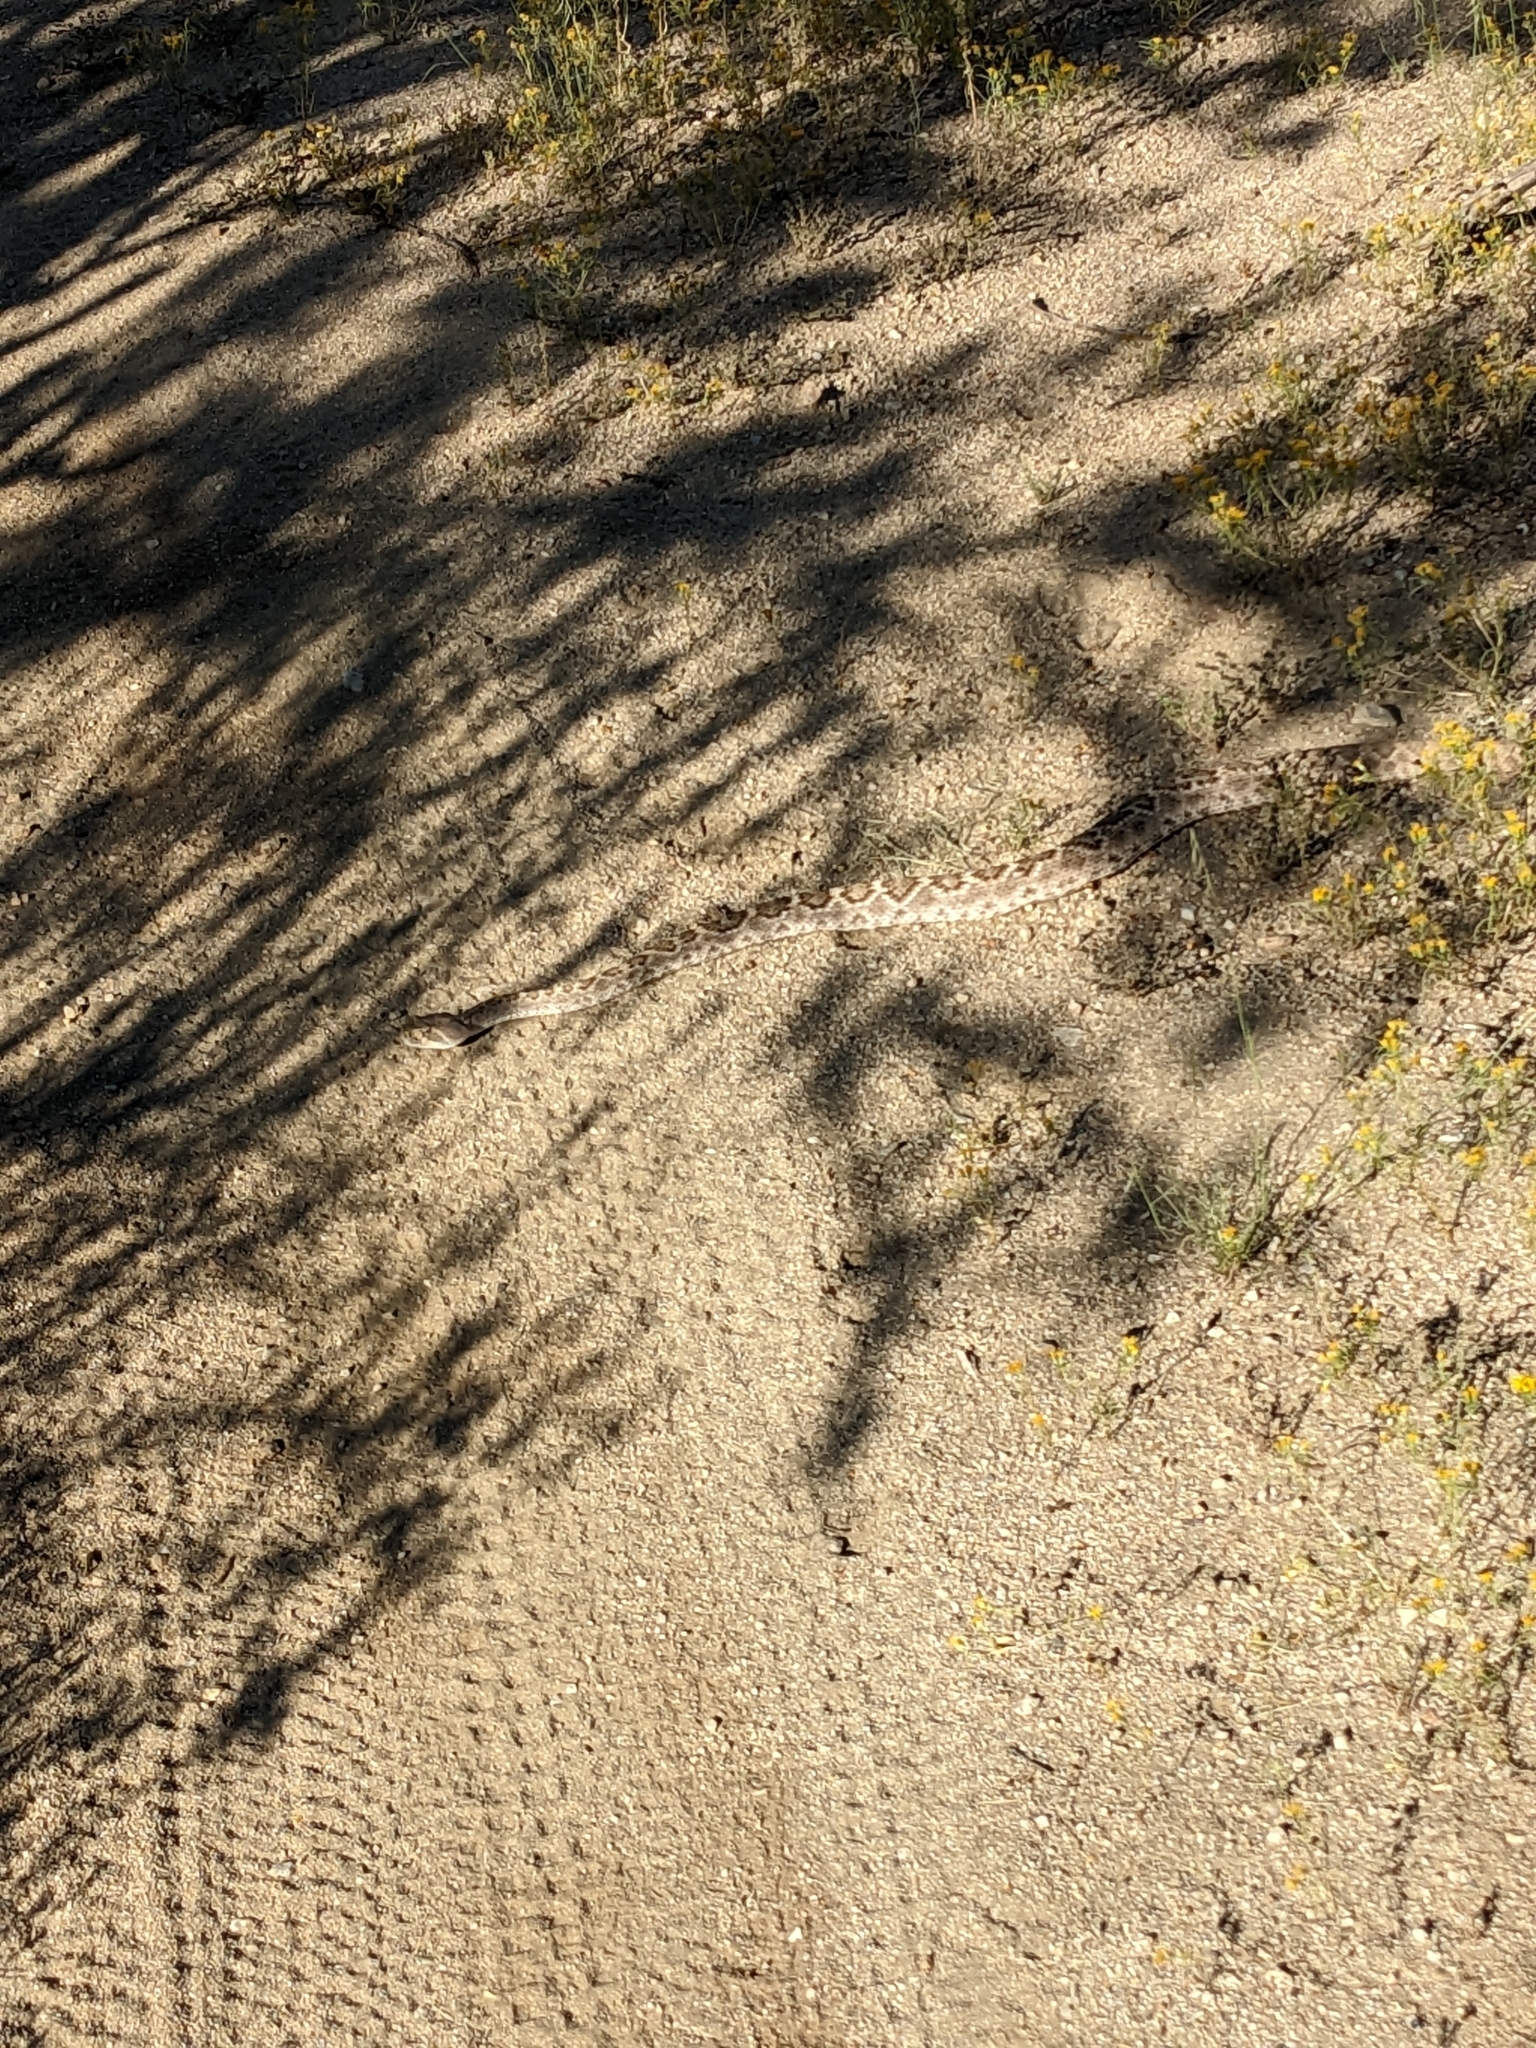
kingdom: Animalia
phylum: Chordata
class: Squamata
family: Viperidae
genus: Crotalus
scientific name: Crotalus atrox
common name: Western diamond-backed rattlesnake
